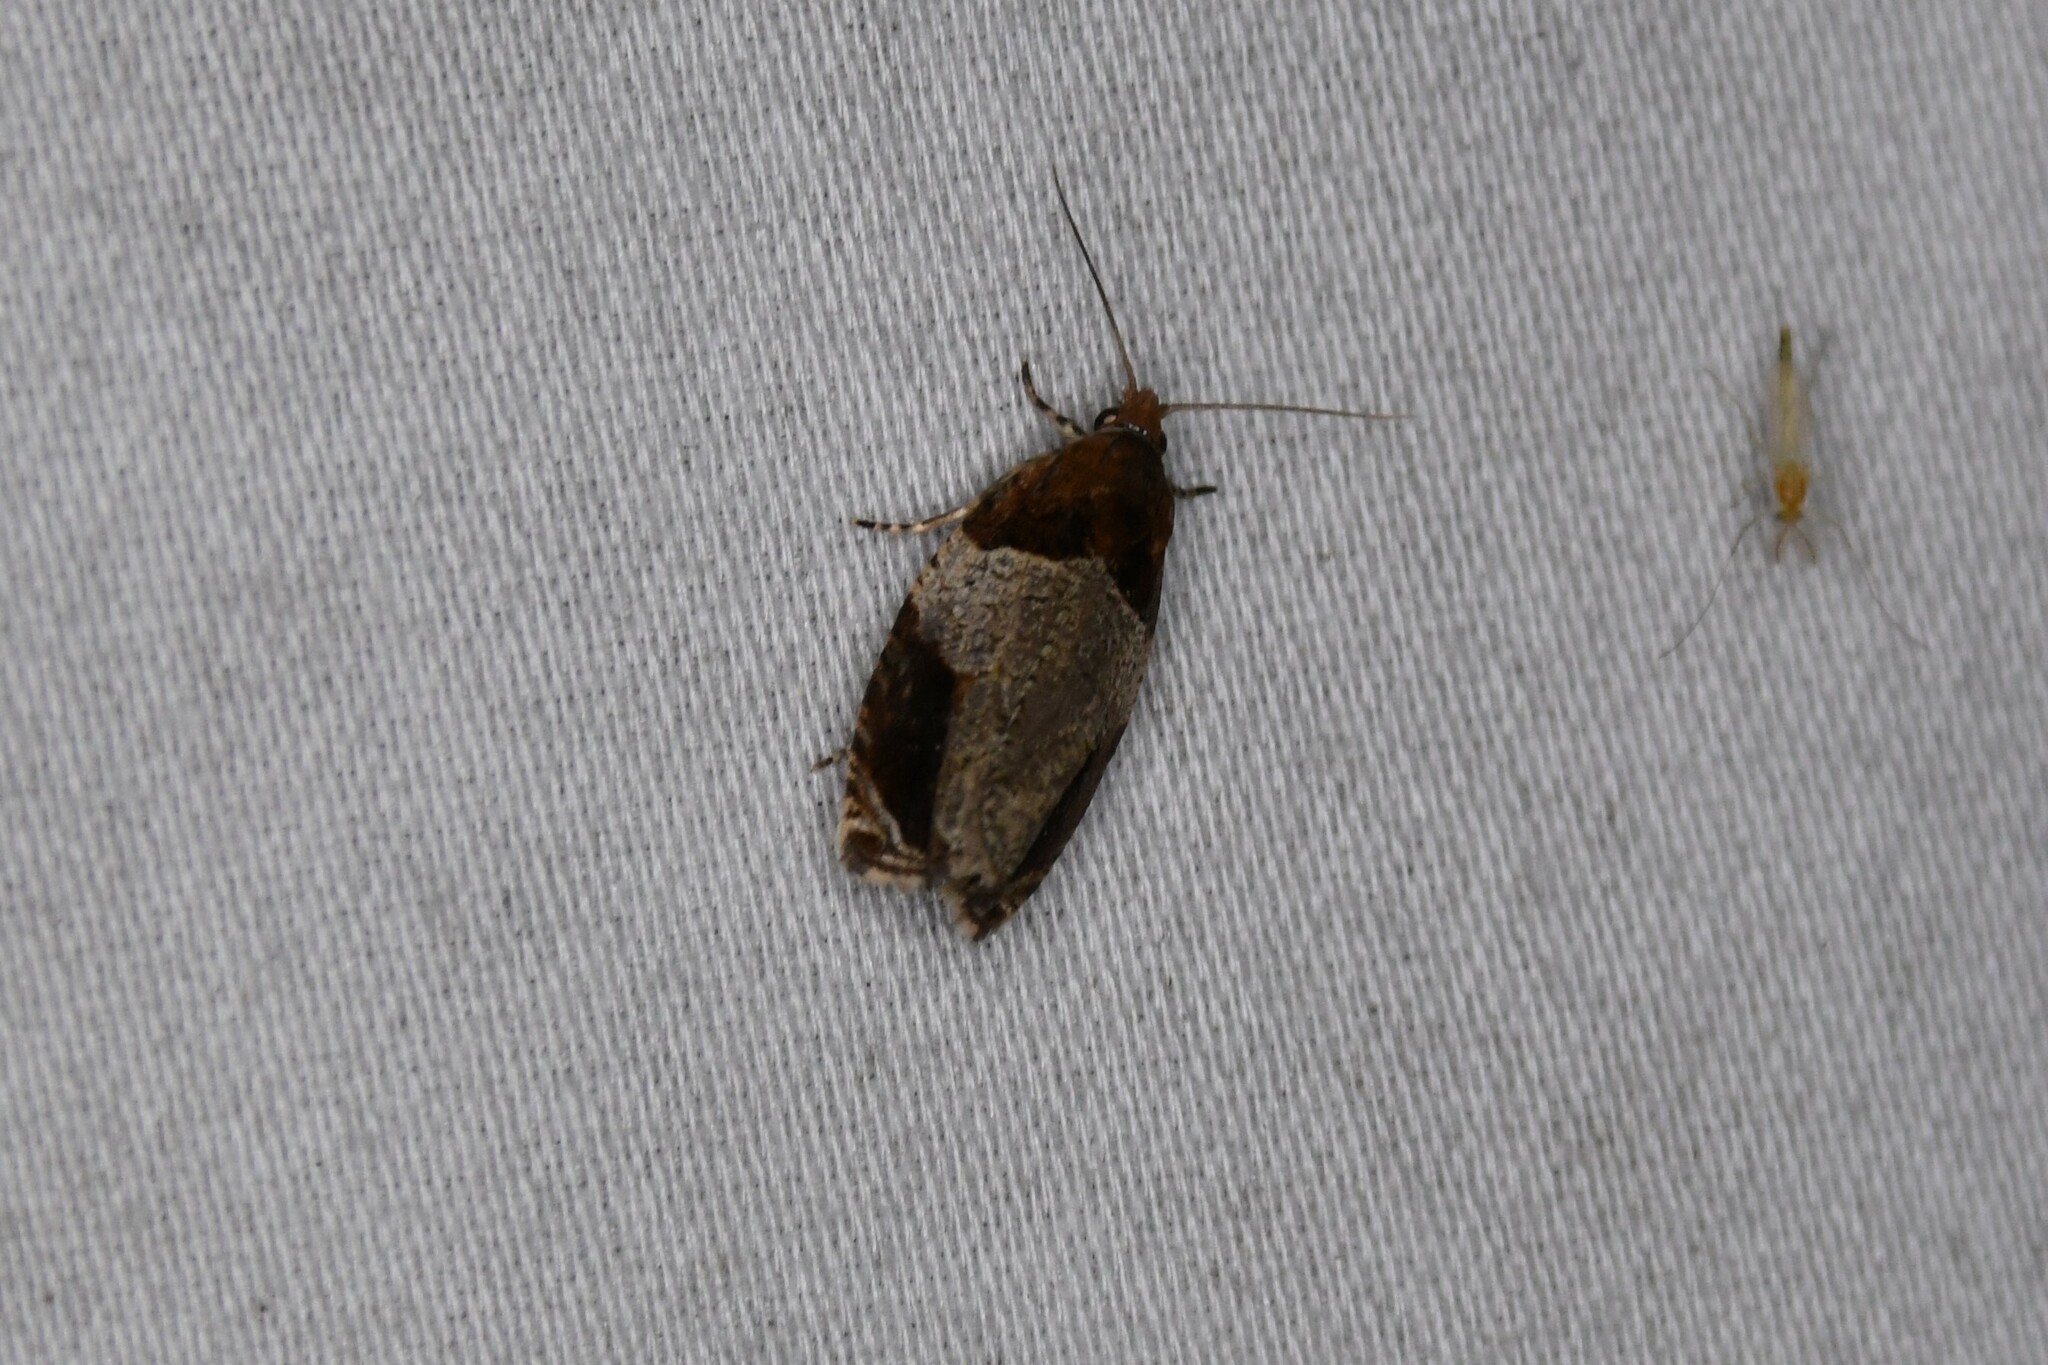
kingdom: Animalia
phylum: Arthropoda
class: Insecta
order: Lepidoptera
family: Tortricidae
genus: Olethreutes
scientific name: Olethreutes ferriferana
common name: Hydrangea leaftier moth
